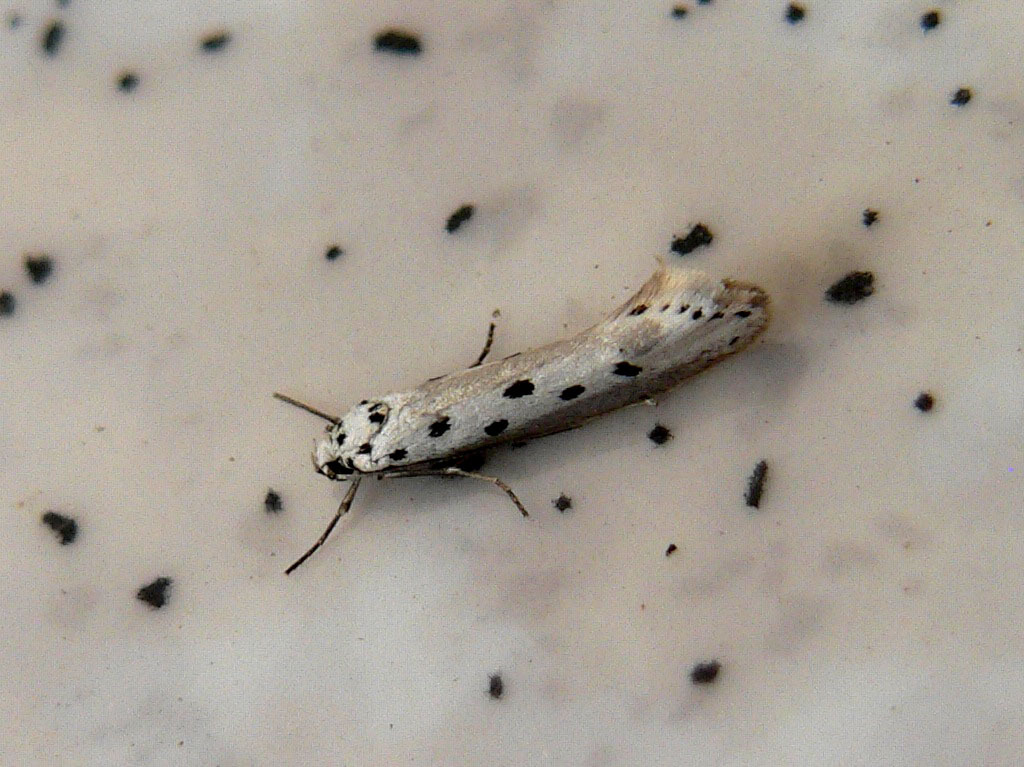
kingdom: Animalia
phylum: Arthropoda
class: Insecta
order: Lepidoptera
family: Ethmiidae
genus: Ethmia
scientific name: Ethmia terminella
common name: Five-spot ermel
